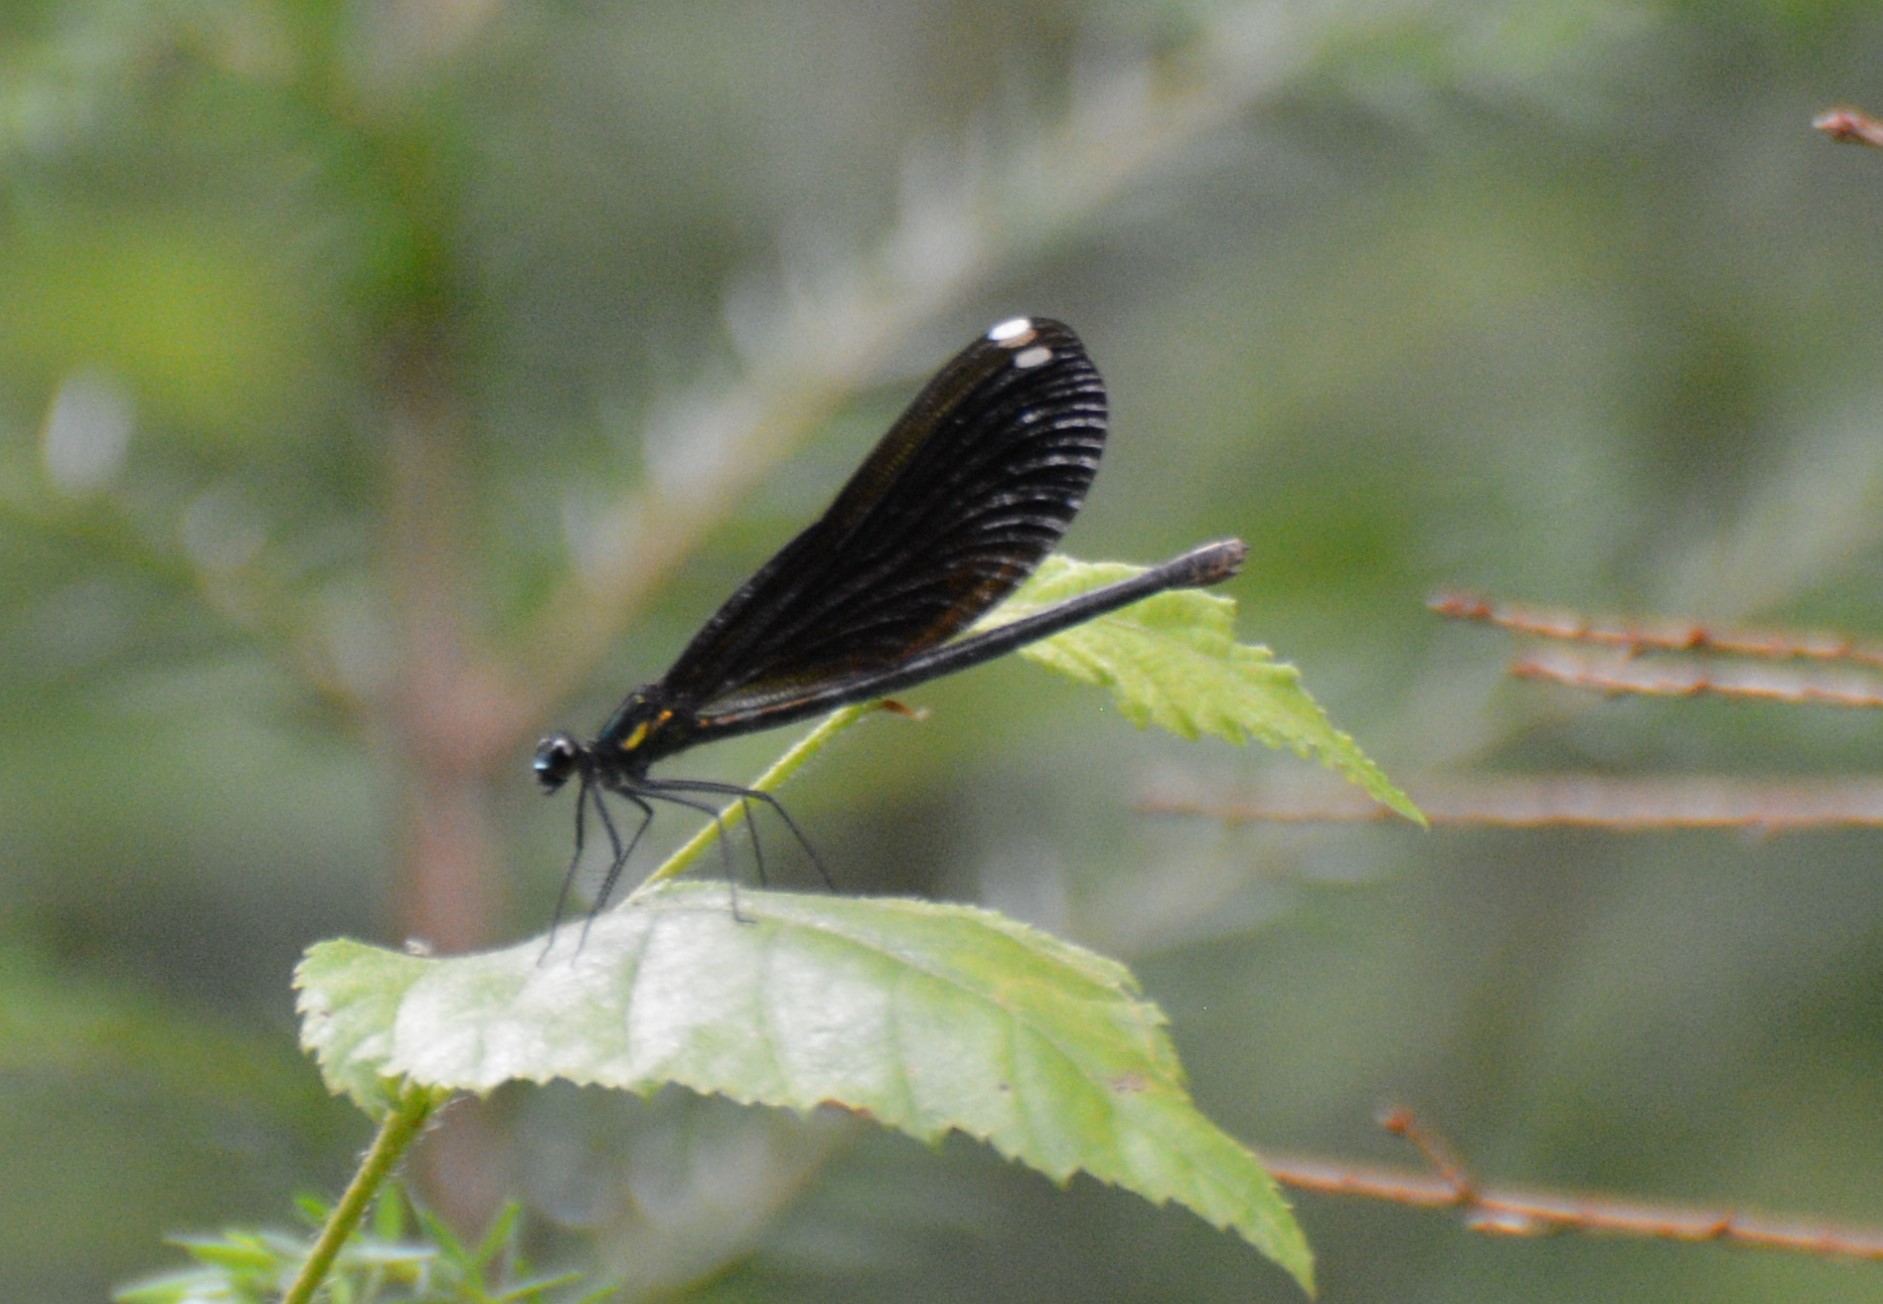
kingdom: Animalia
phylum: Arthropoda
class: Insecta
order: Odonata
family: Calopterygidae
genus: Calopteryx
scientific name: Calopteryx maculata
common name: Ebony jewelwing
